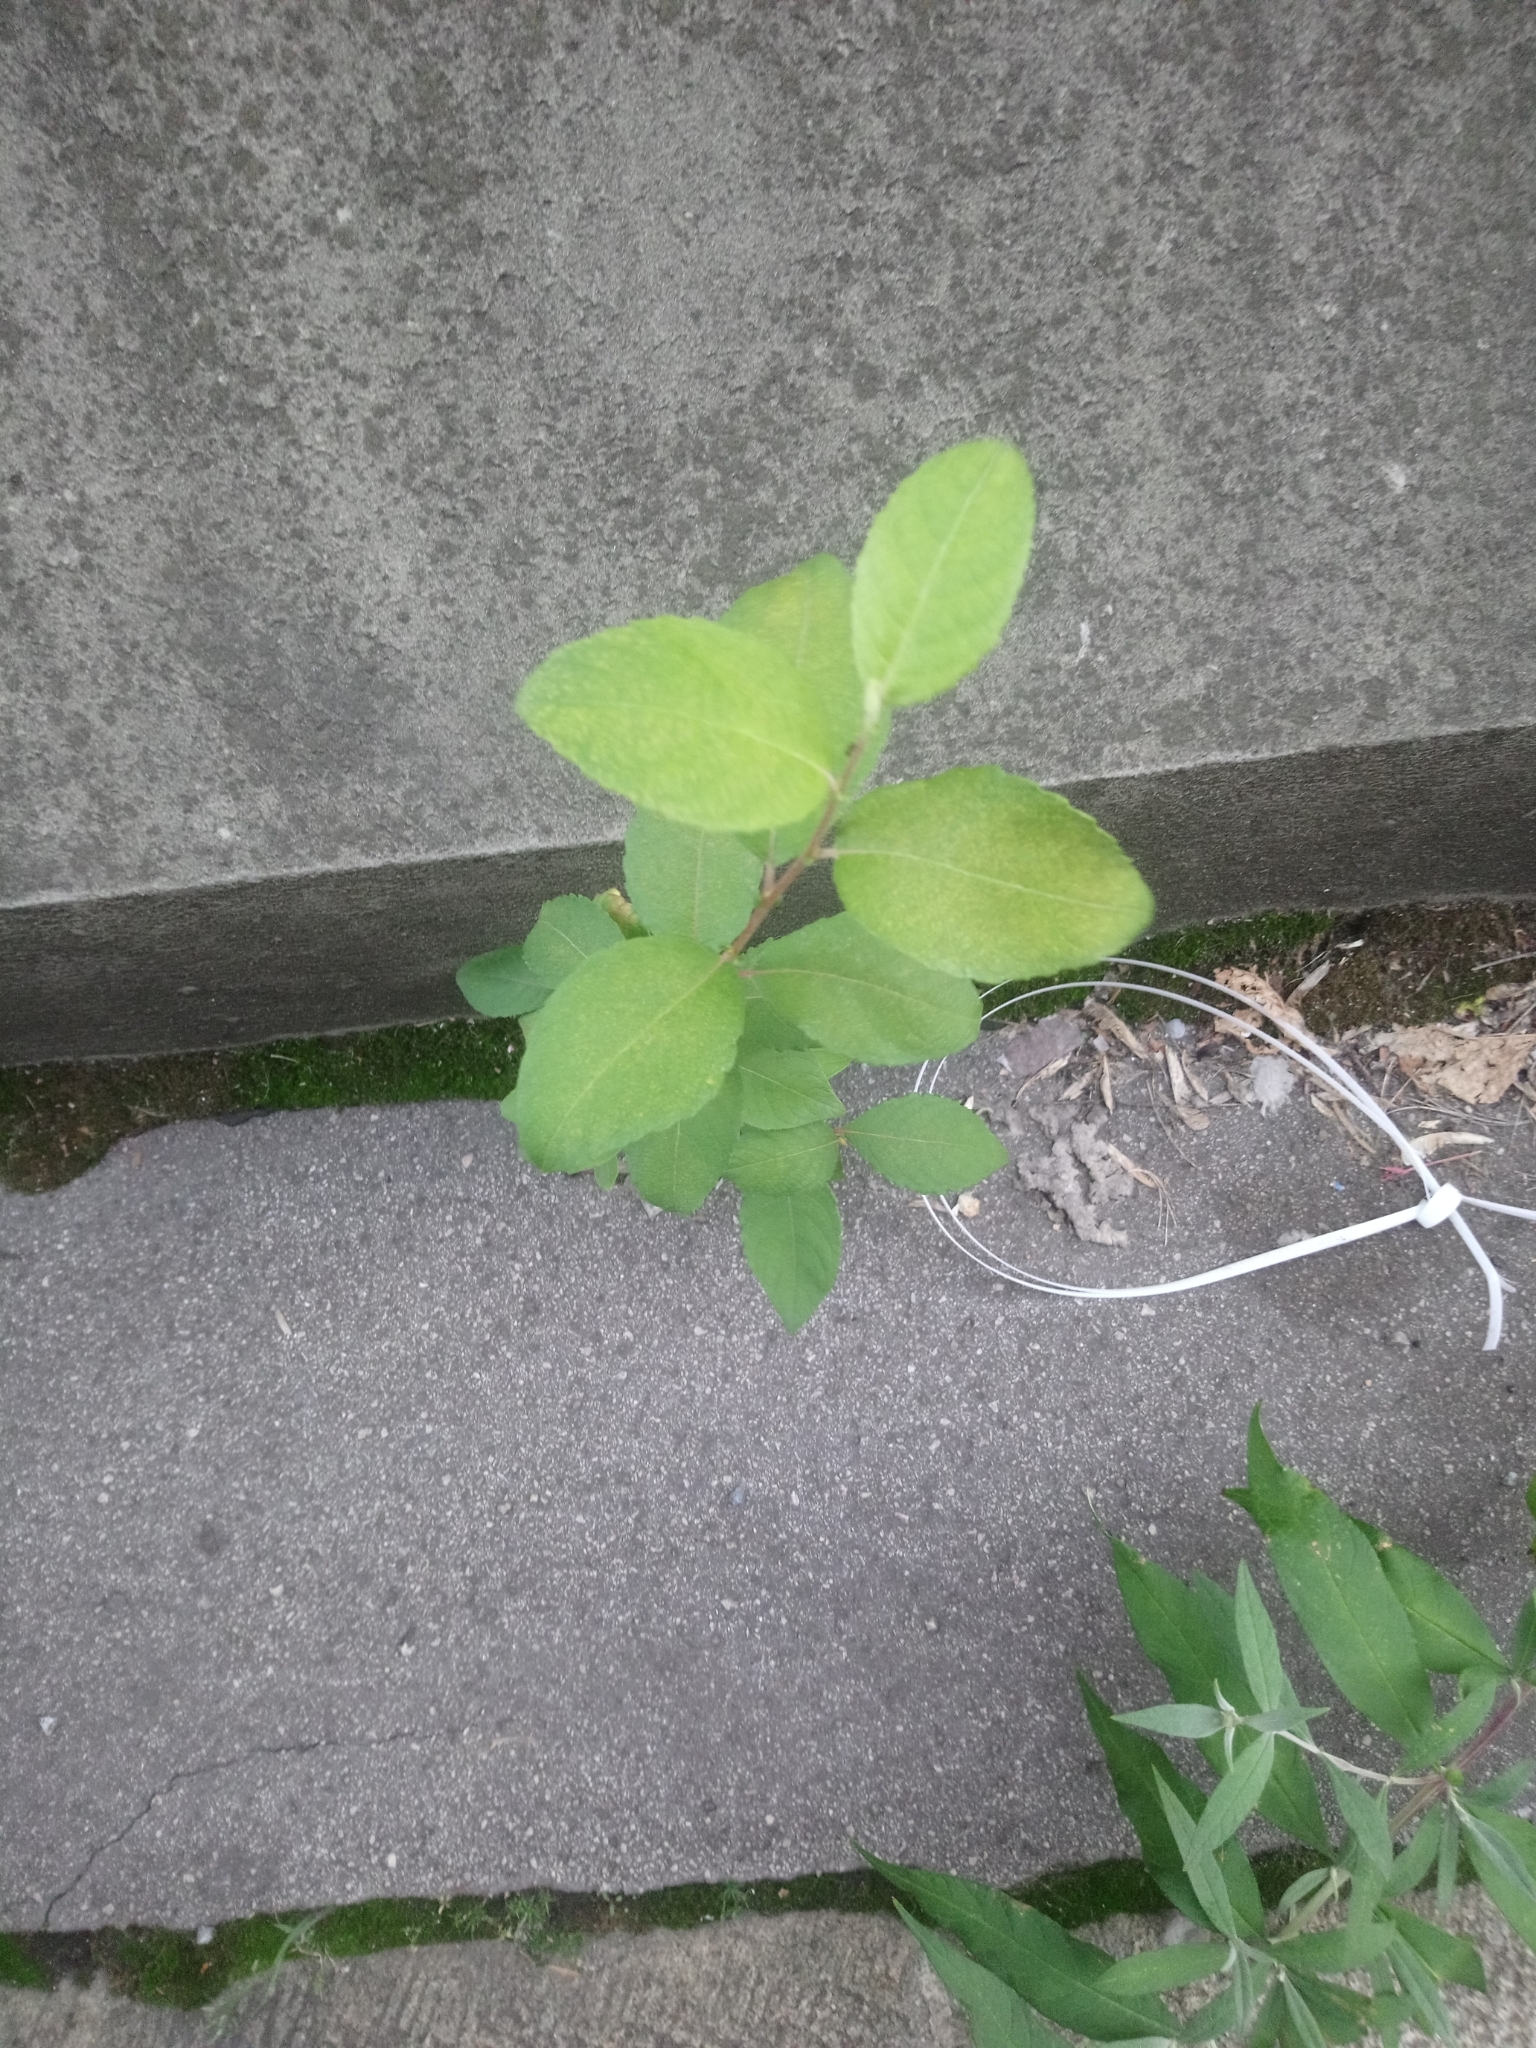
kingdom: Plantae
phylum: Tracheophyta
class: Magnoliopsida
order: Malpighiales
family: Salicaceae
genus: Salix
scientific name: Salix caprea
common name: Goat willow
